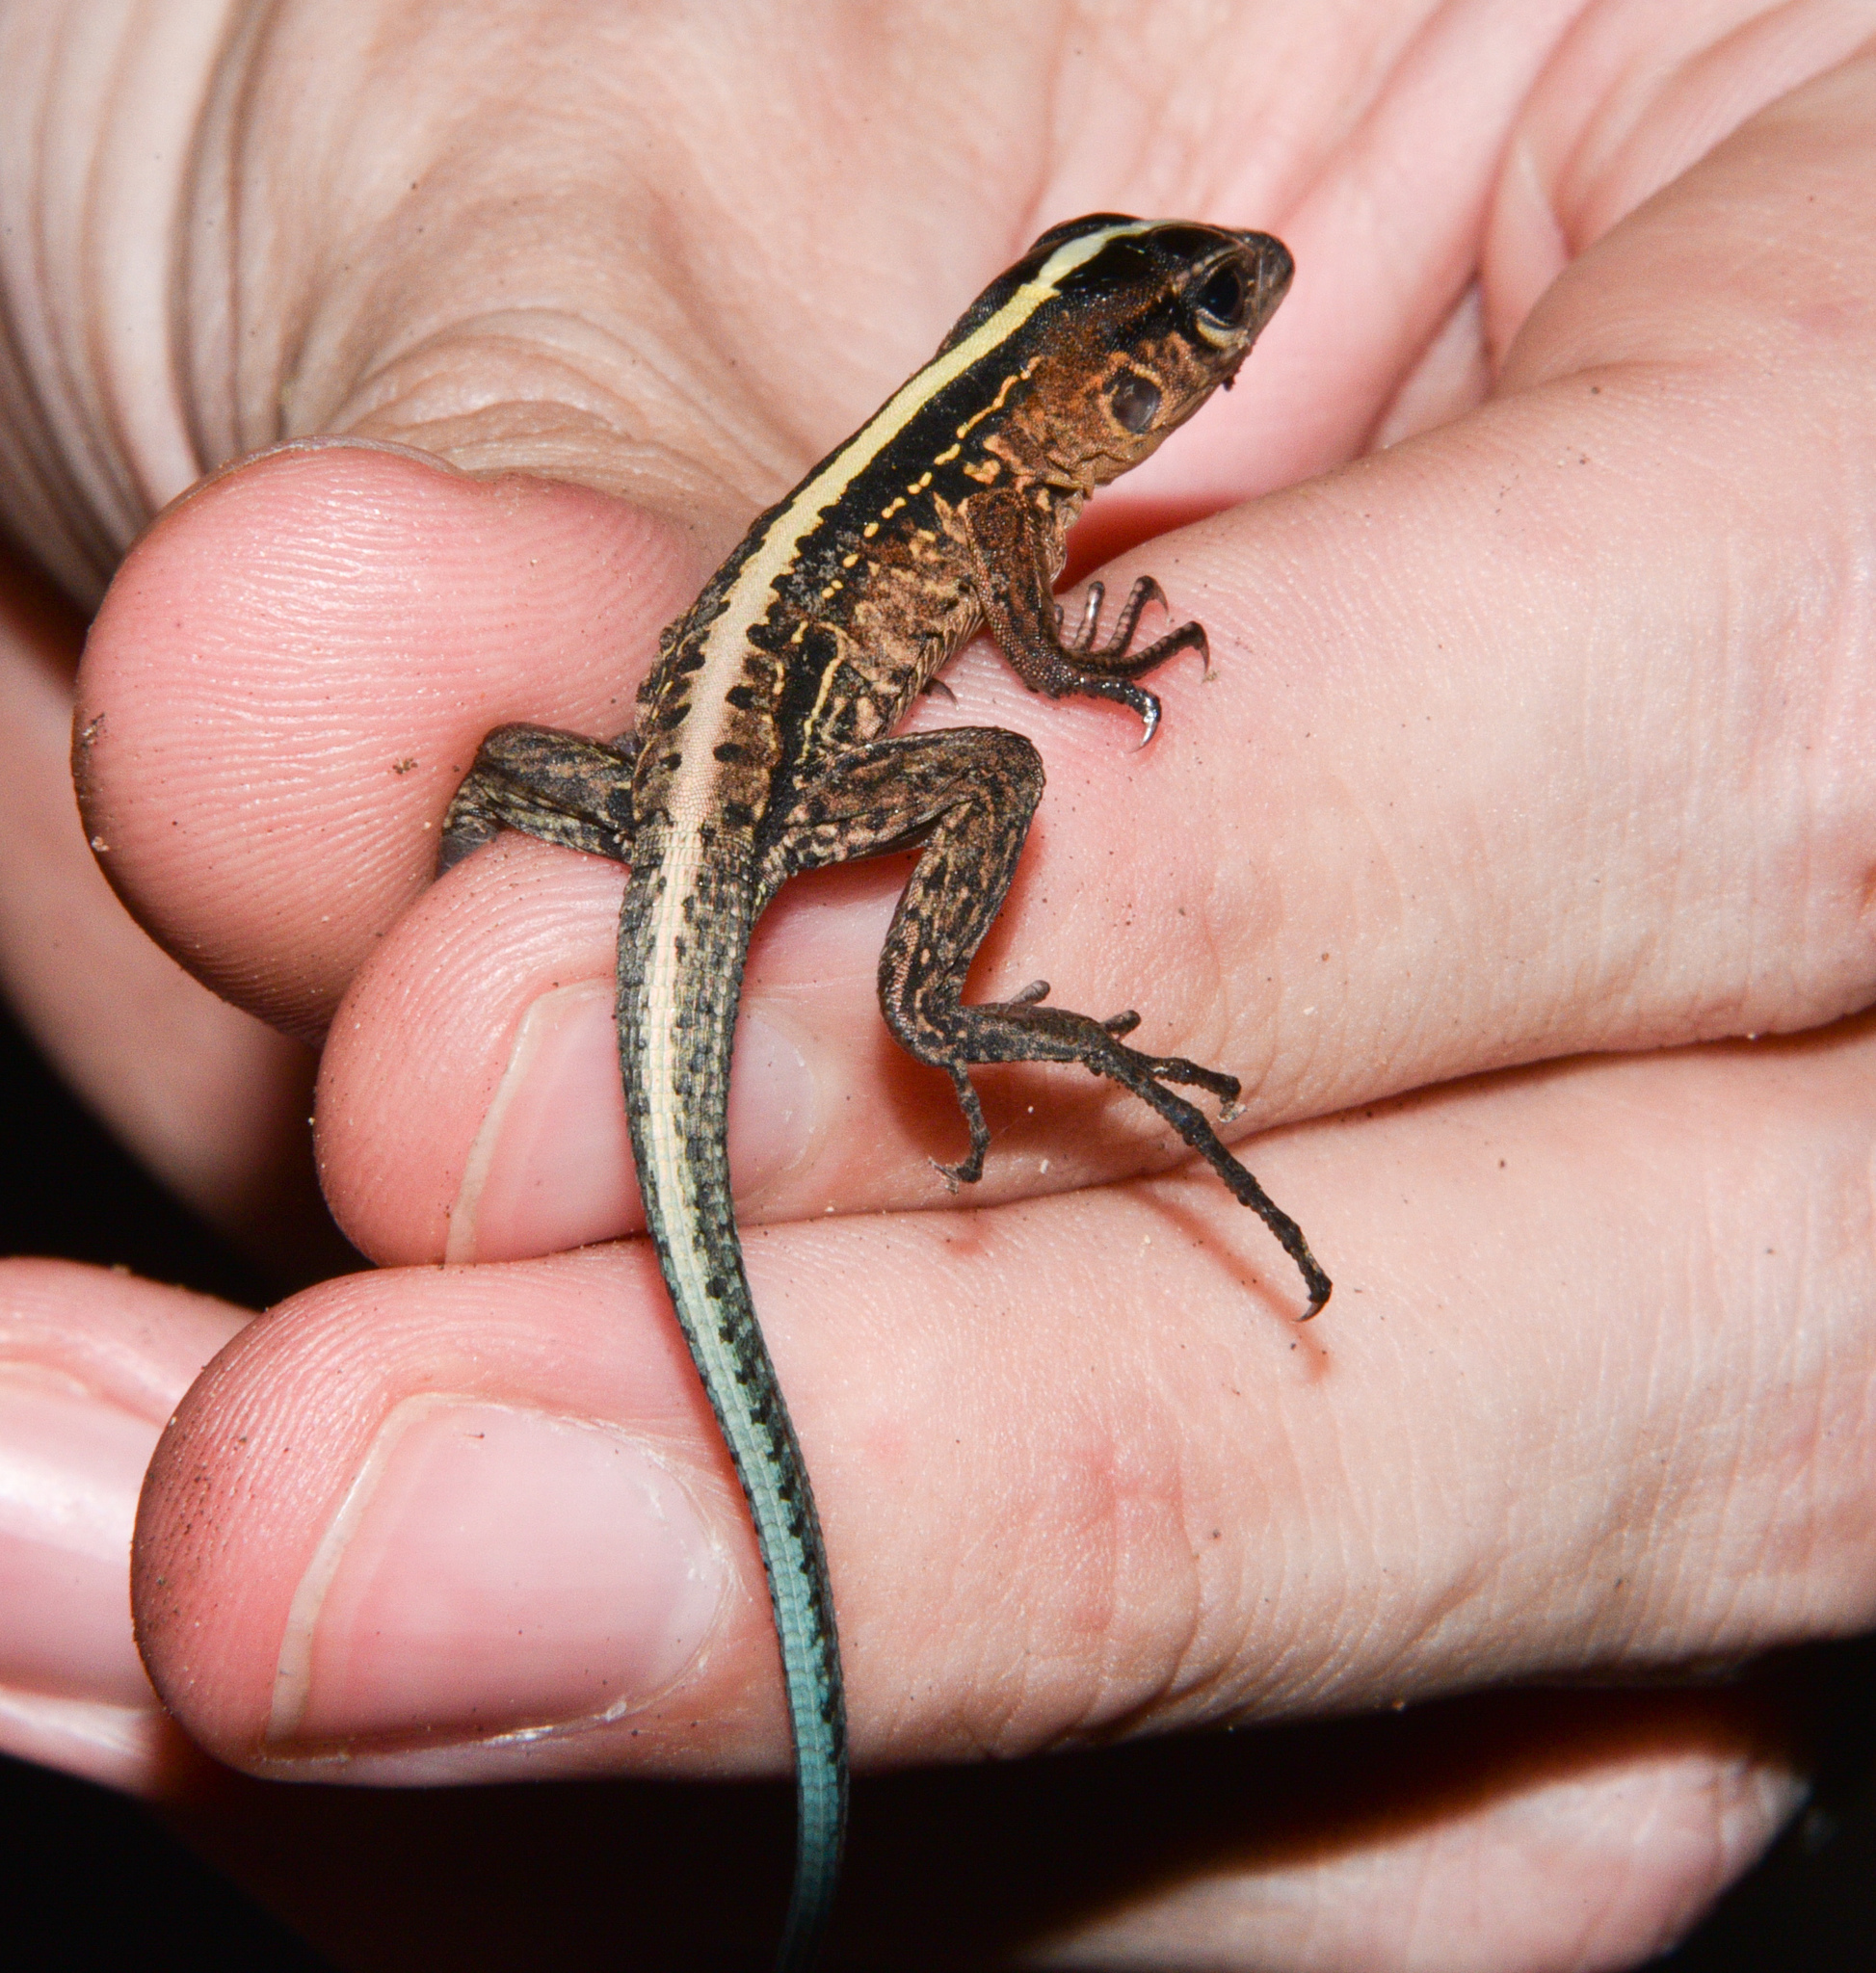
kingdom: Animalia
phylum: Chordata
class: Squamata
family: Teiidae
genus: Holcosus
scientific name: Holcosus festivus
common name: Middle american ameiva
